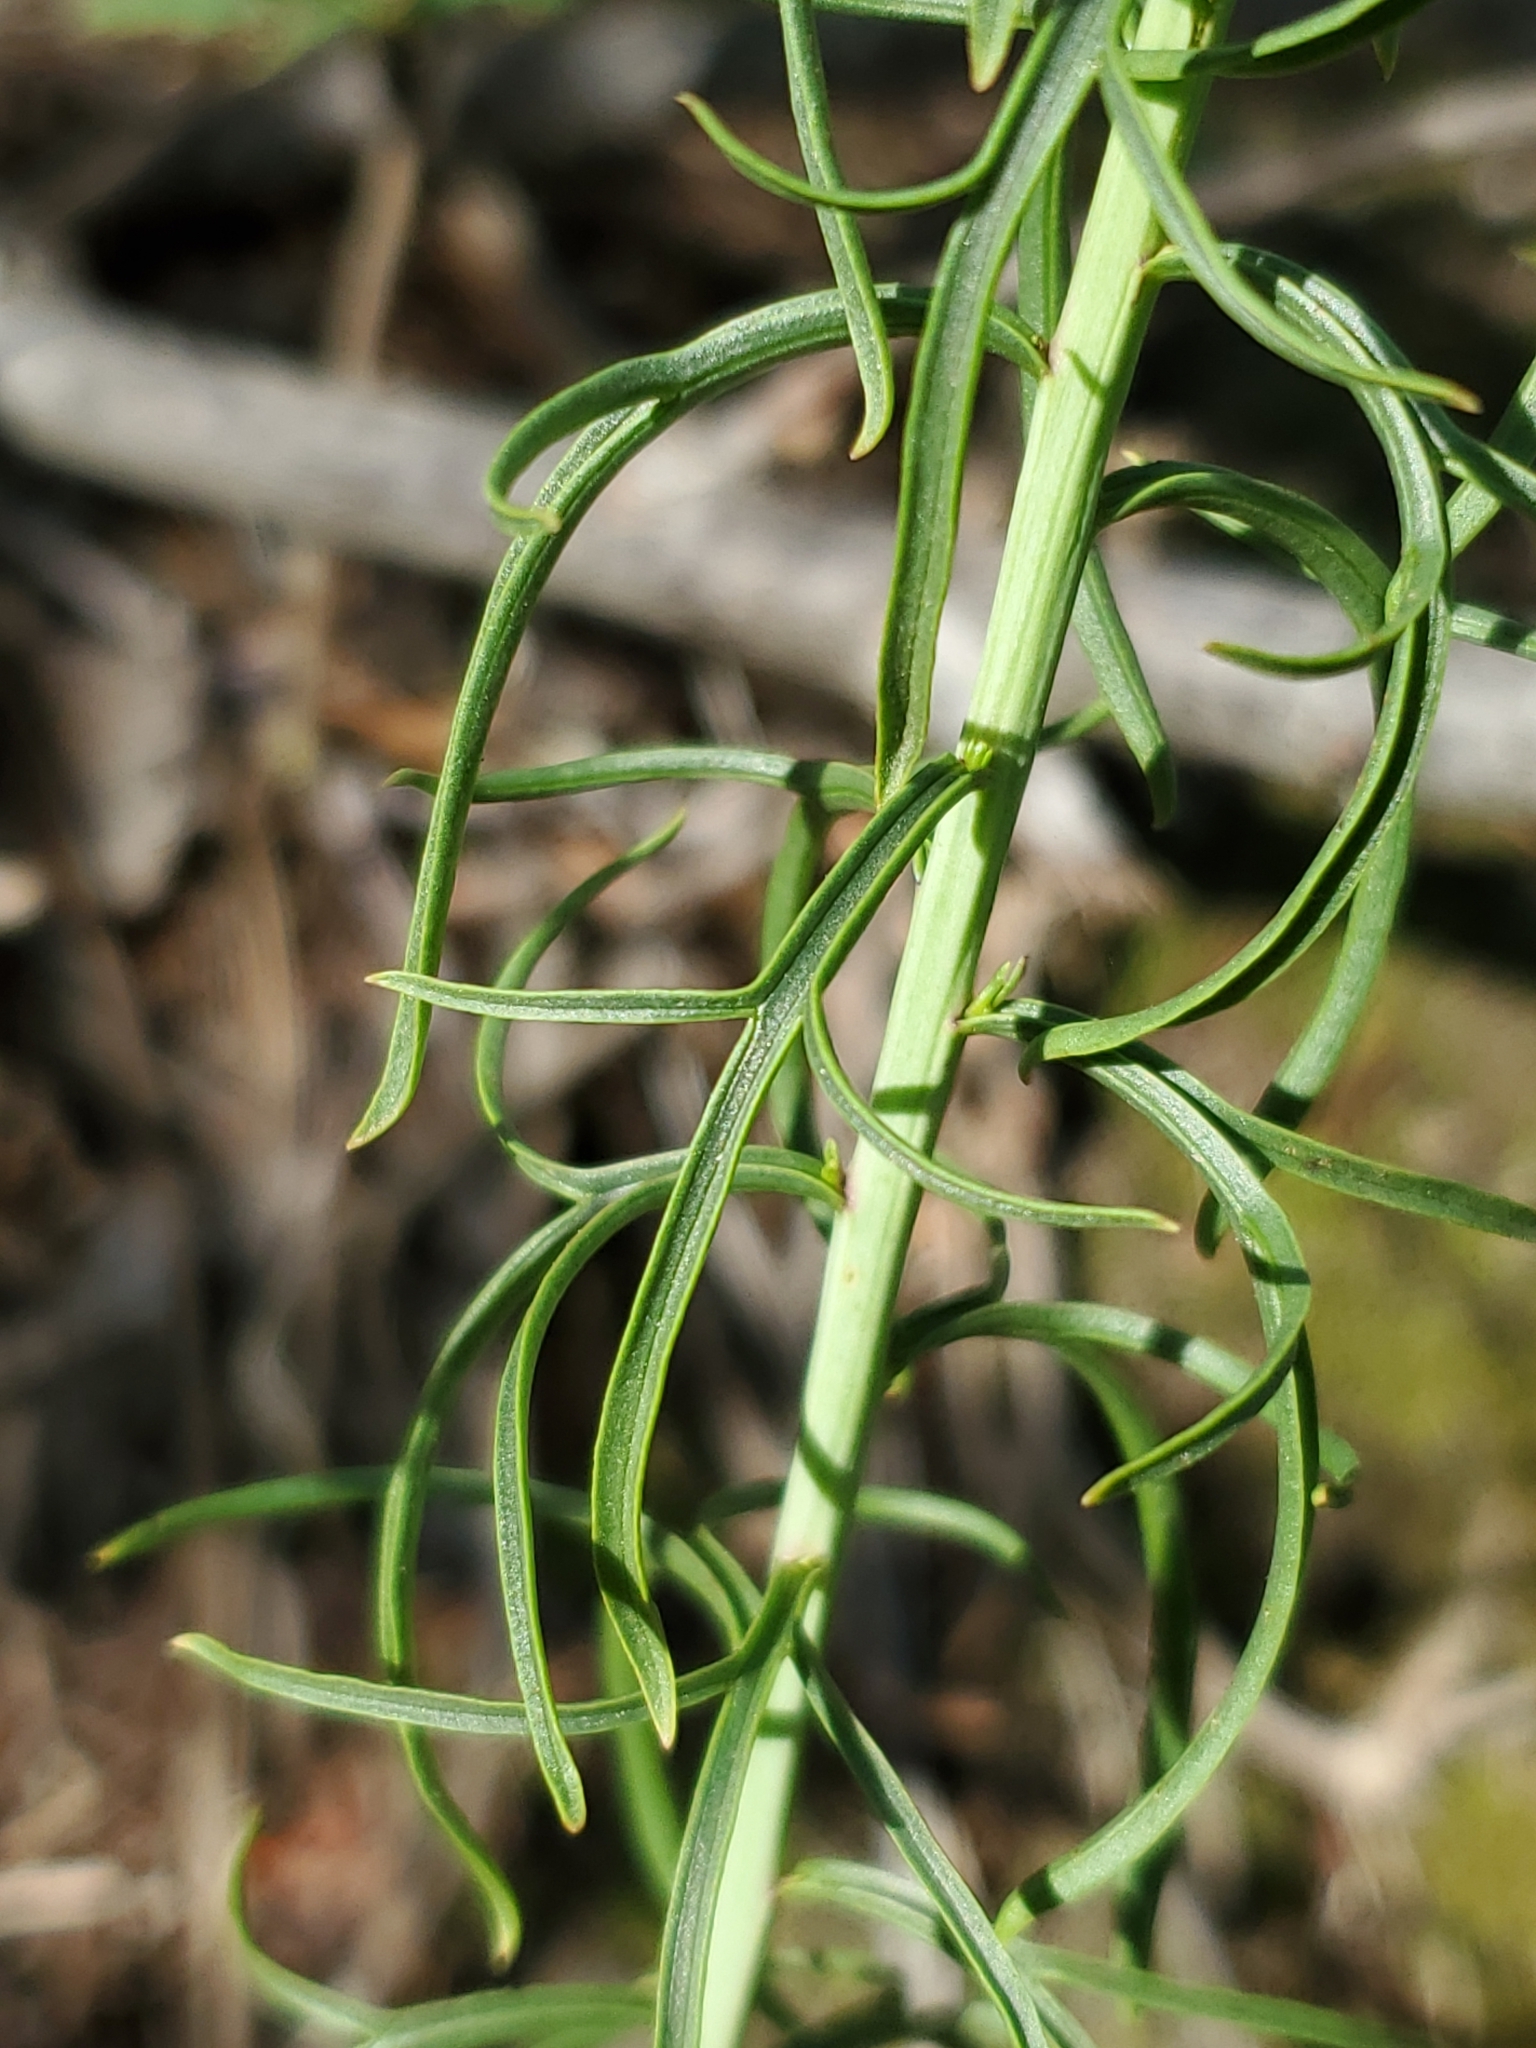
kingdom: Plantae
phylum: Tracheophyta
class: Magnoliopsida
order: Lamiales
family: Orobanchaceae
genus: Castilleja
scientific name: Castilleja linariifolia
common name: Wyoming paintbrush
